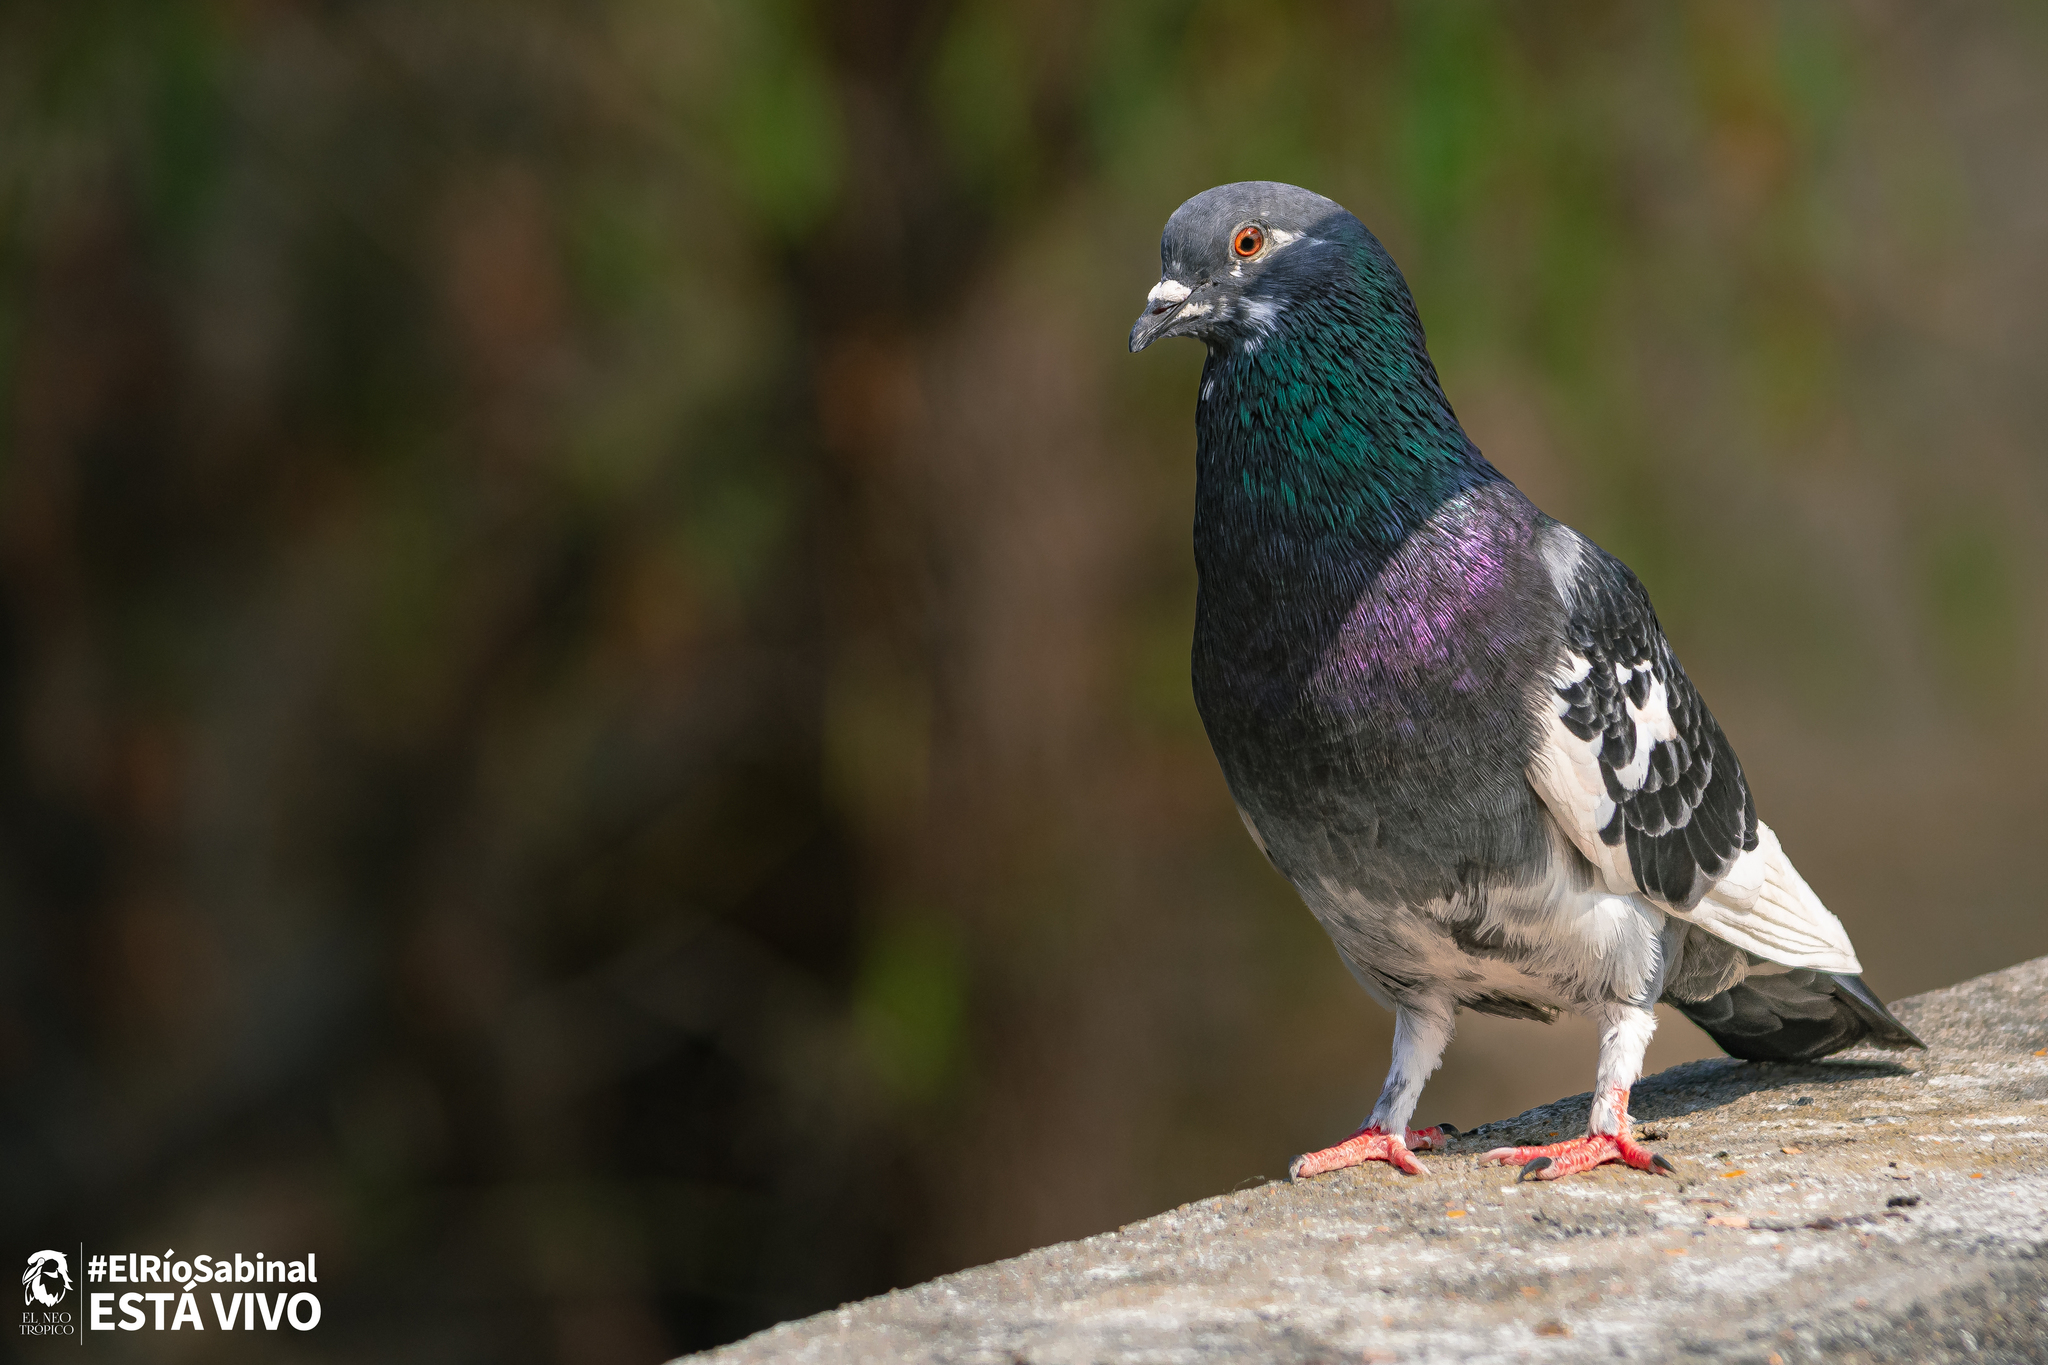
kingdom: Animalia
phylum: Chordata
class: Aves
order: Columbiformes
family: Columbidae
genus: Columba
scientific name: Columba livia
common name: Rock pigeon
